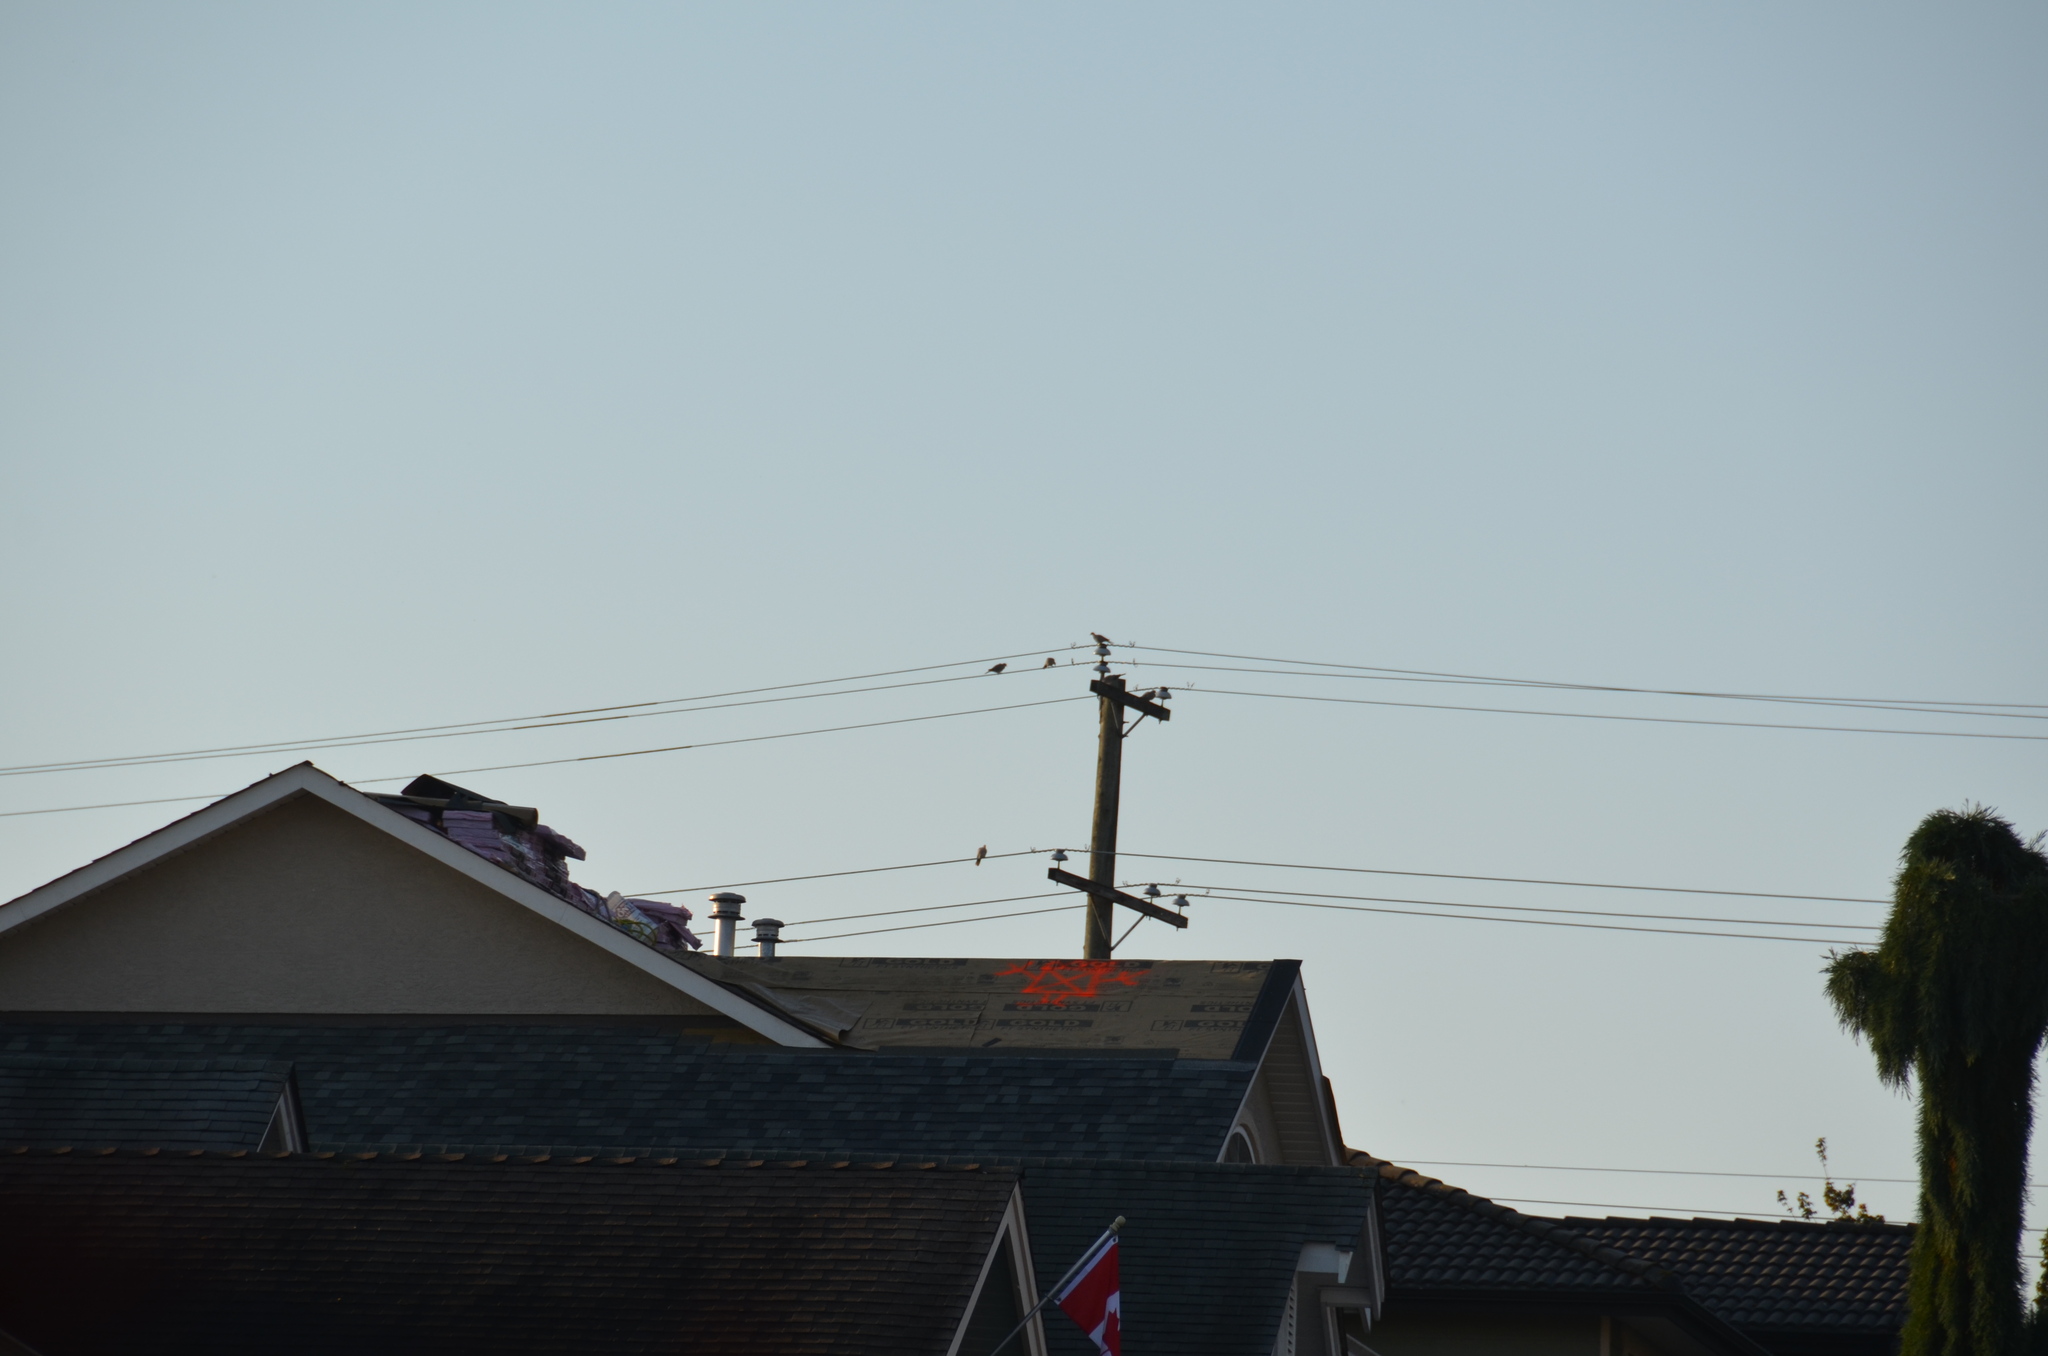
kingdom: Animalia
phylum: Chordata
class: Aves
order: Columbiformes
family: Columbidae
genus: Streptopelia
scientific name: Streptopelia decaocto
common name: Eurasian collared dove
